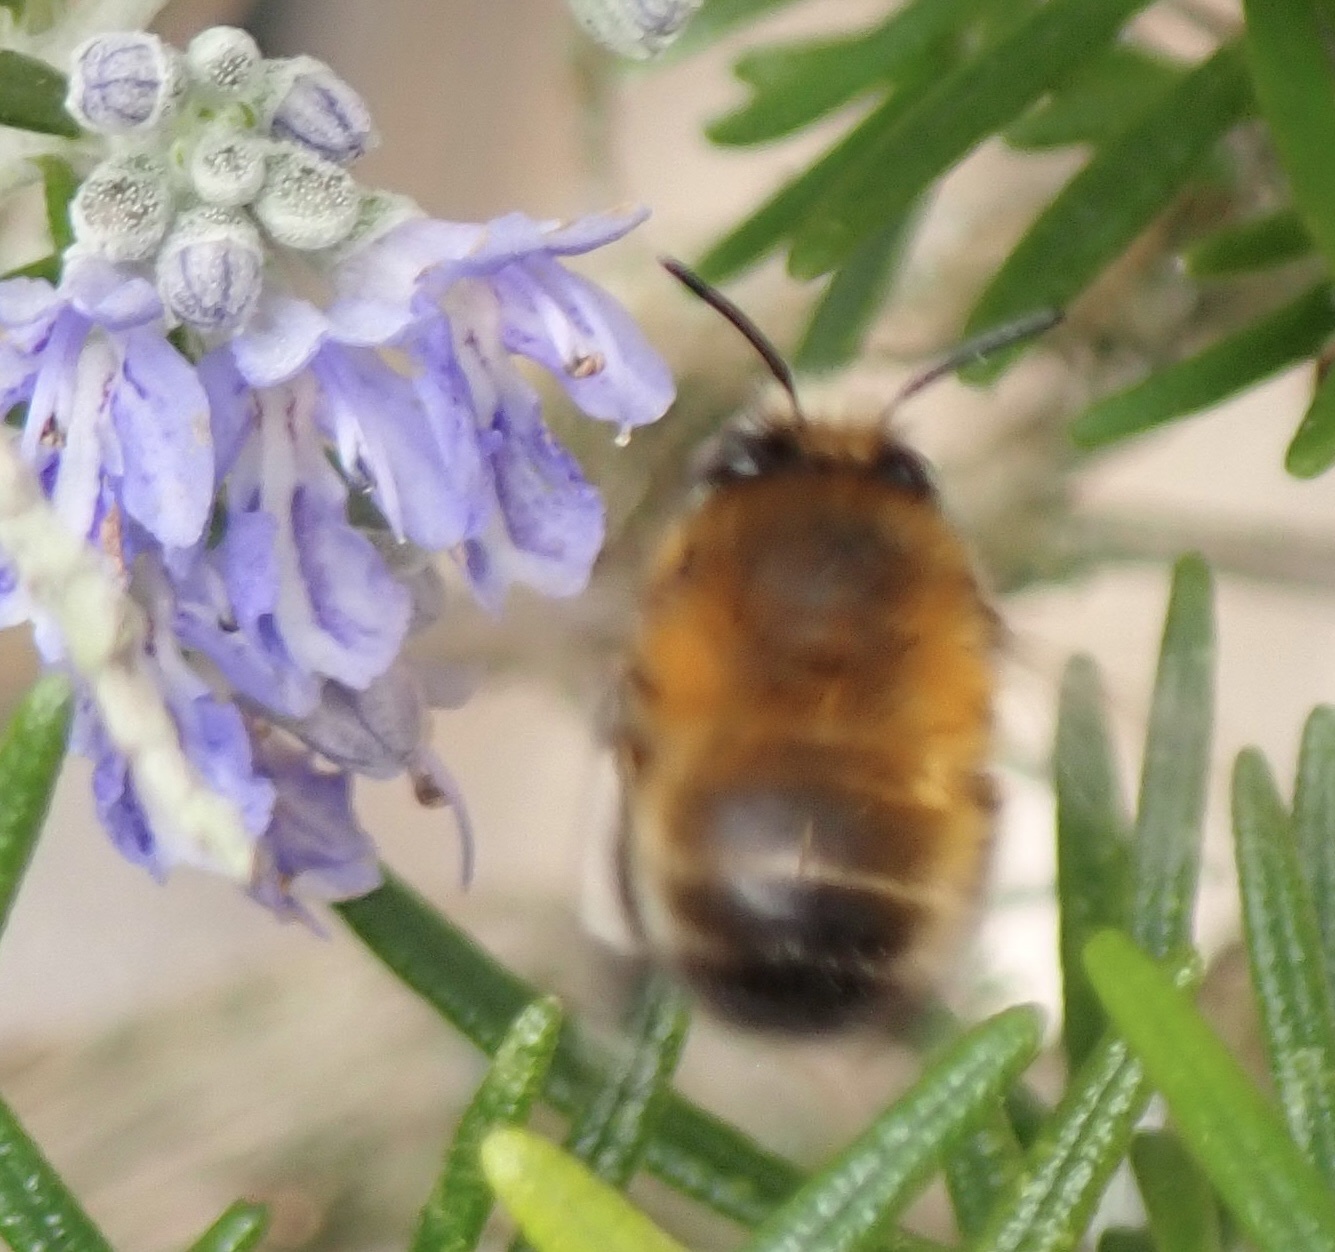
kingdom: Animalia
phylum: Arthropoda
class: Insecta
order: Hymenoptera
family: Apidae
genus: Anthophora
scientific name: Anthophora plumipes
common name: Hairy-footed flower bee
